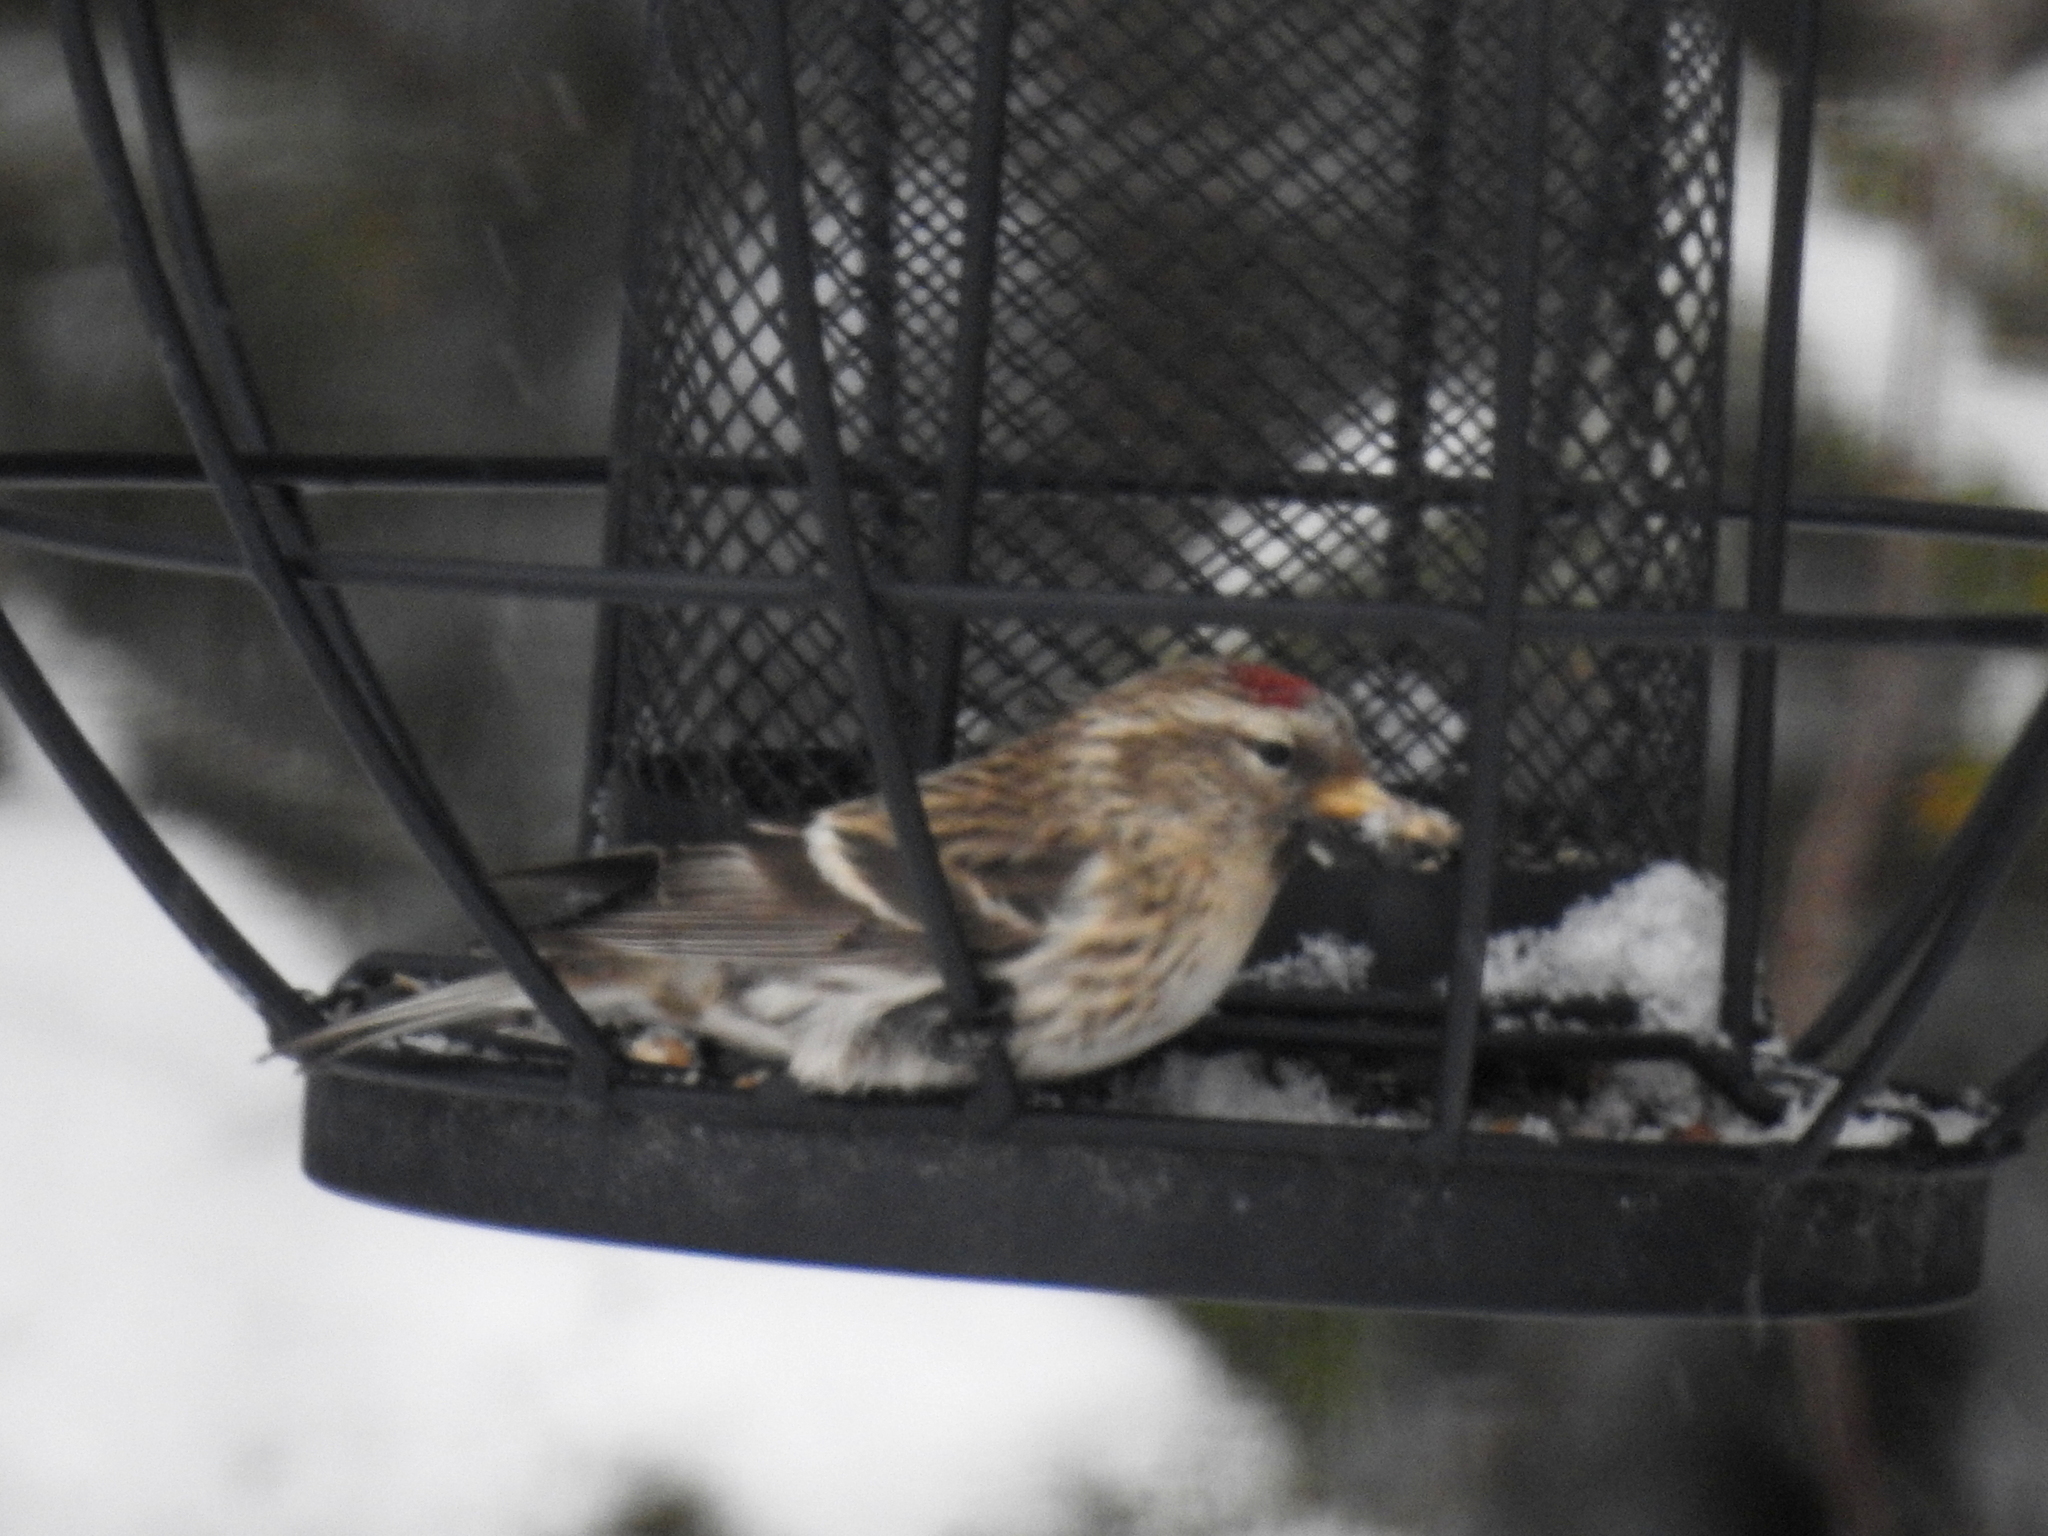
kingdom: Animalia
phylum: Chordata
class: Aves
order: Passeriformes
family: Fringillidae
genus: Acanthis
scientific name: Acanthis flammea
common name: Common redpoll
